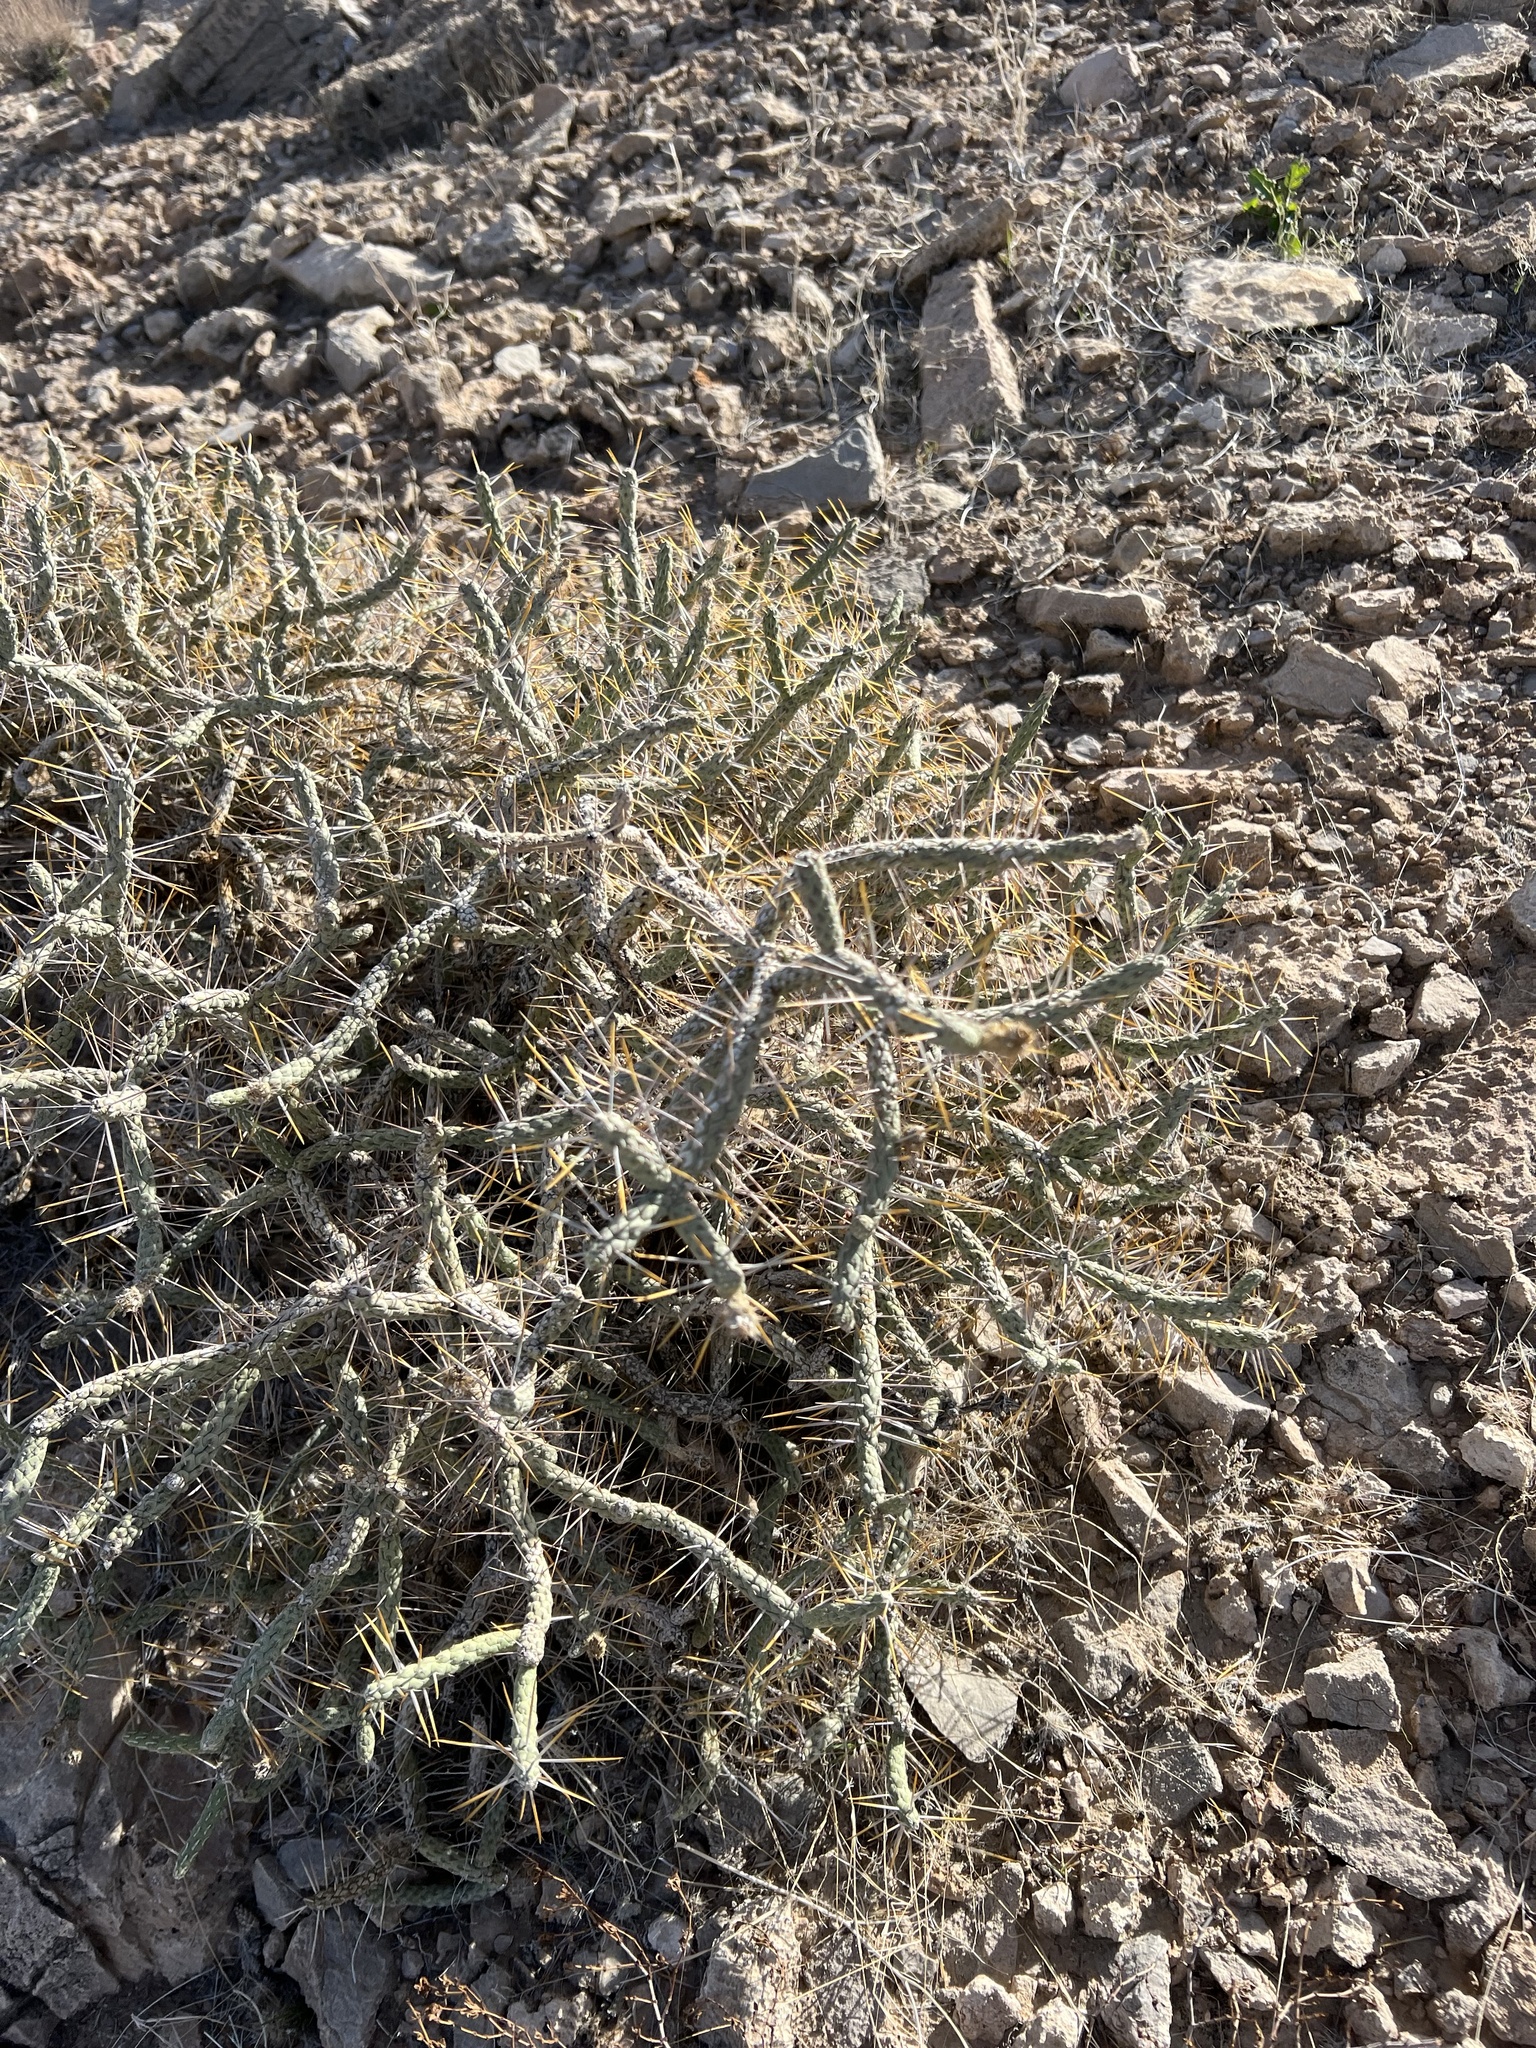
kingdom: Plantae
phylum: Tracheophyta
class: Magnoliopsida
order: Caryophyllales
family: Cactaceae
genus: Cylindropuntia
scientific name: Cylindropuntia ramosissima
